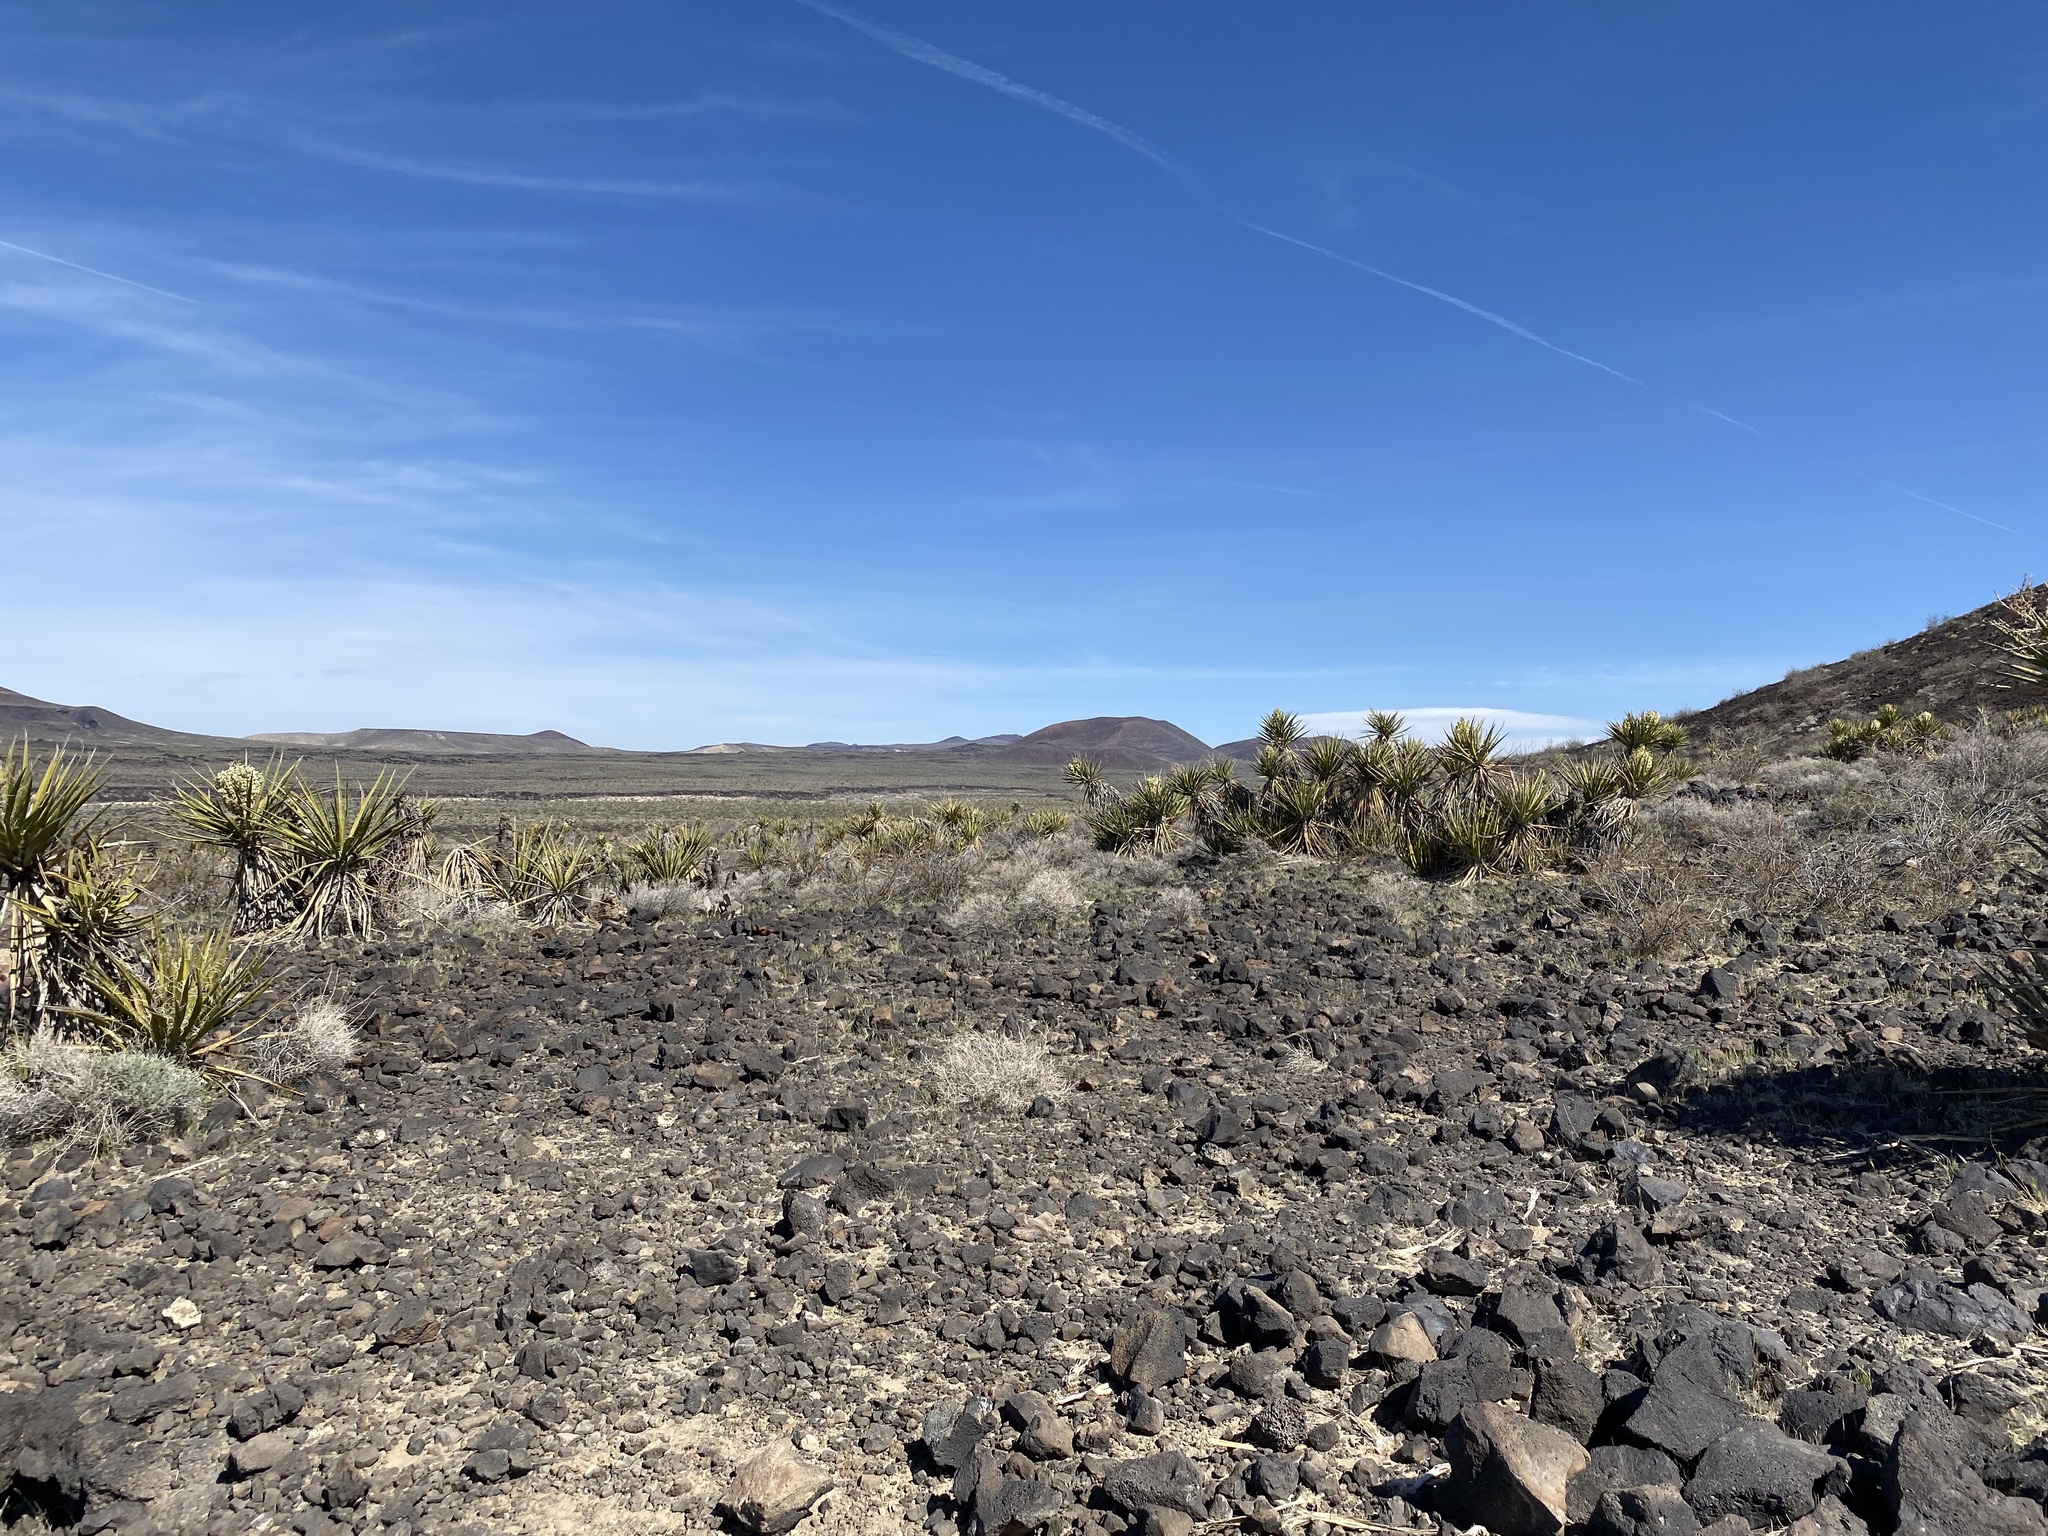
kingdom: Plantae
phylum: Tracheophyta
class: Liliopsida
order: Asparagales
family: Asparagaceae
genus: Yucca
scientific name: Yucca schidigera
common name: Mojave yucca
